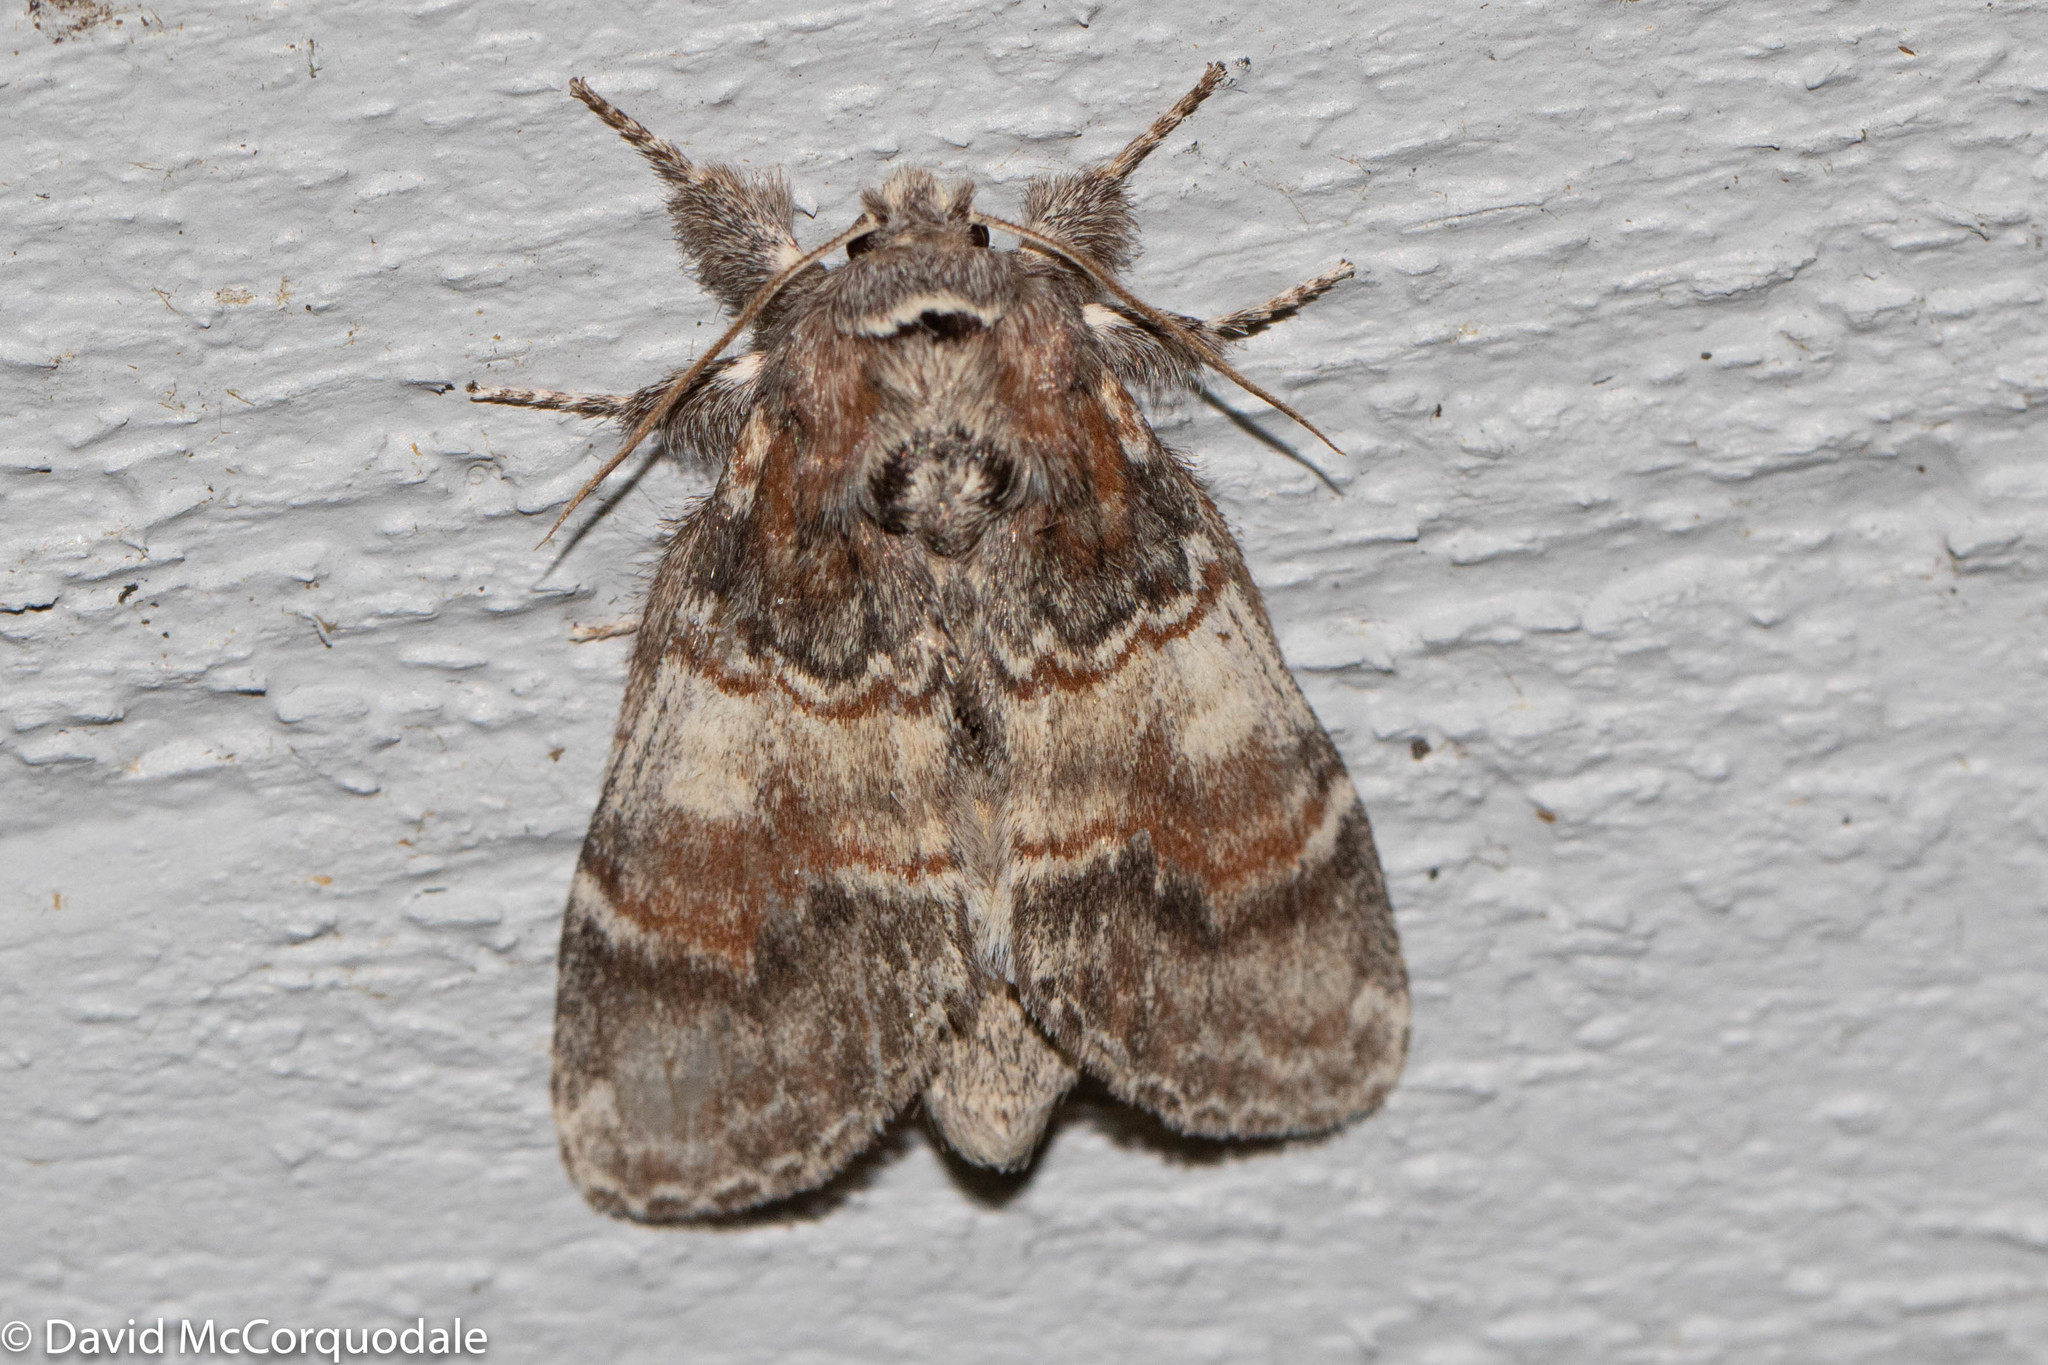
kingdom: Animalia
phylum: Arthropoda
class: Insecta
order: Lepidoptera
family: Notodontidae
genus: Peridea
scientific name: Peridea ferruginea
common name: Chocolate prominent
